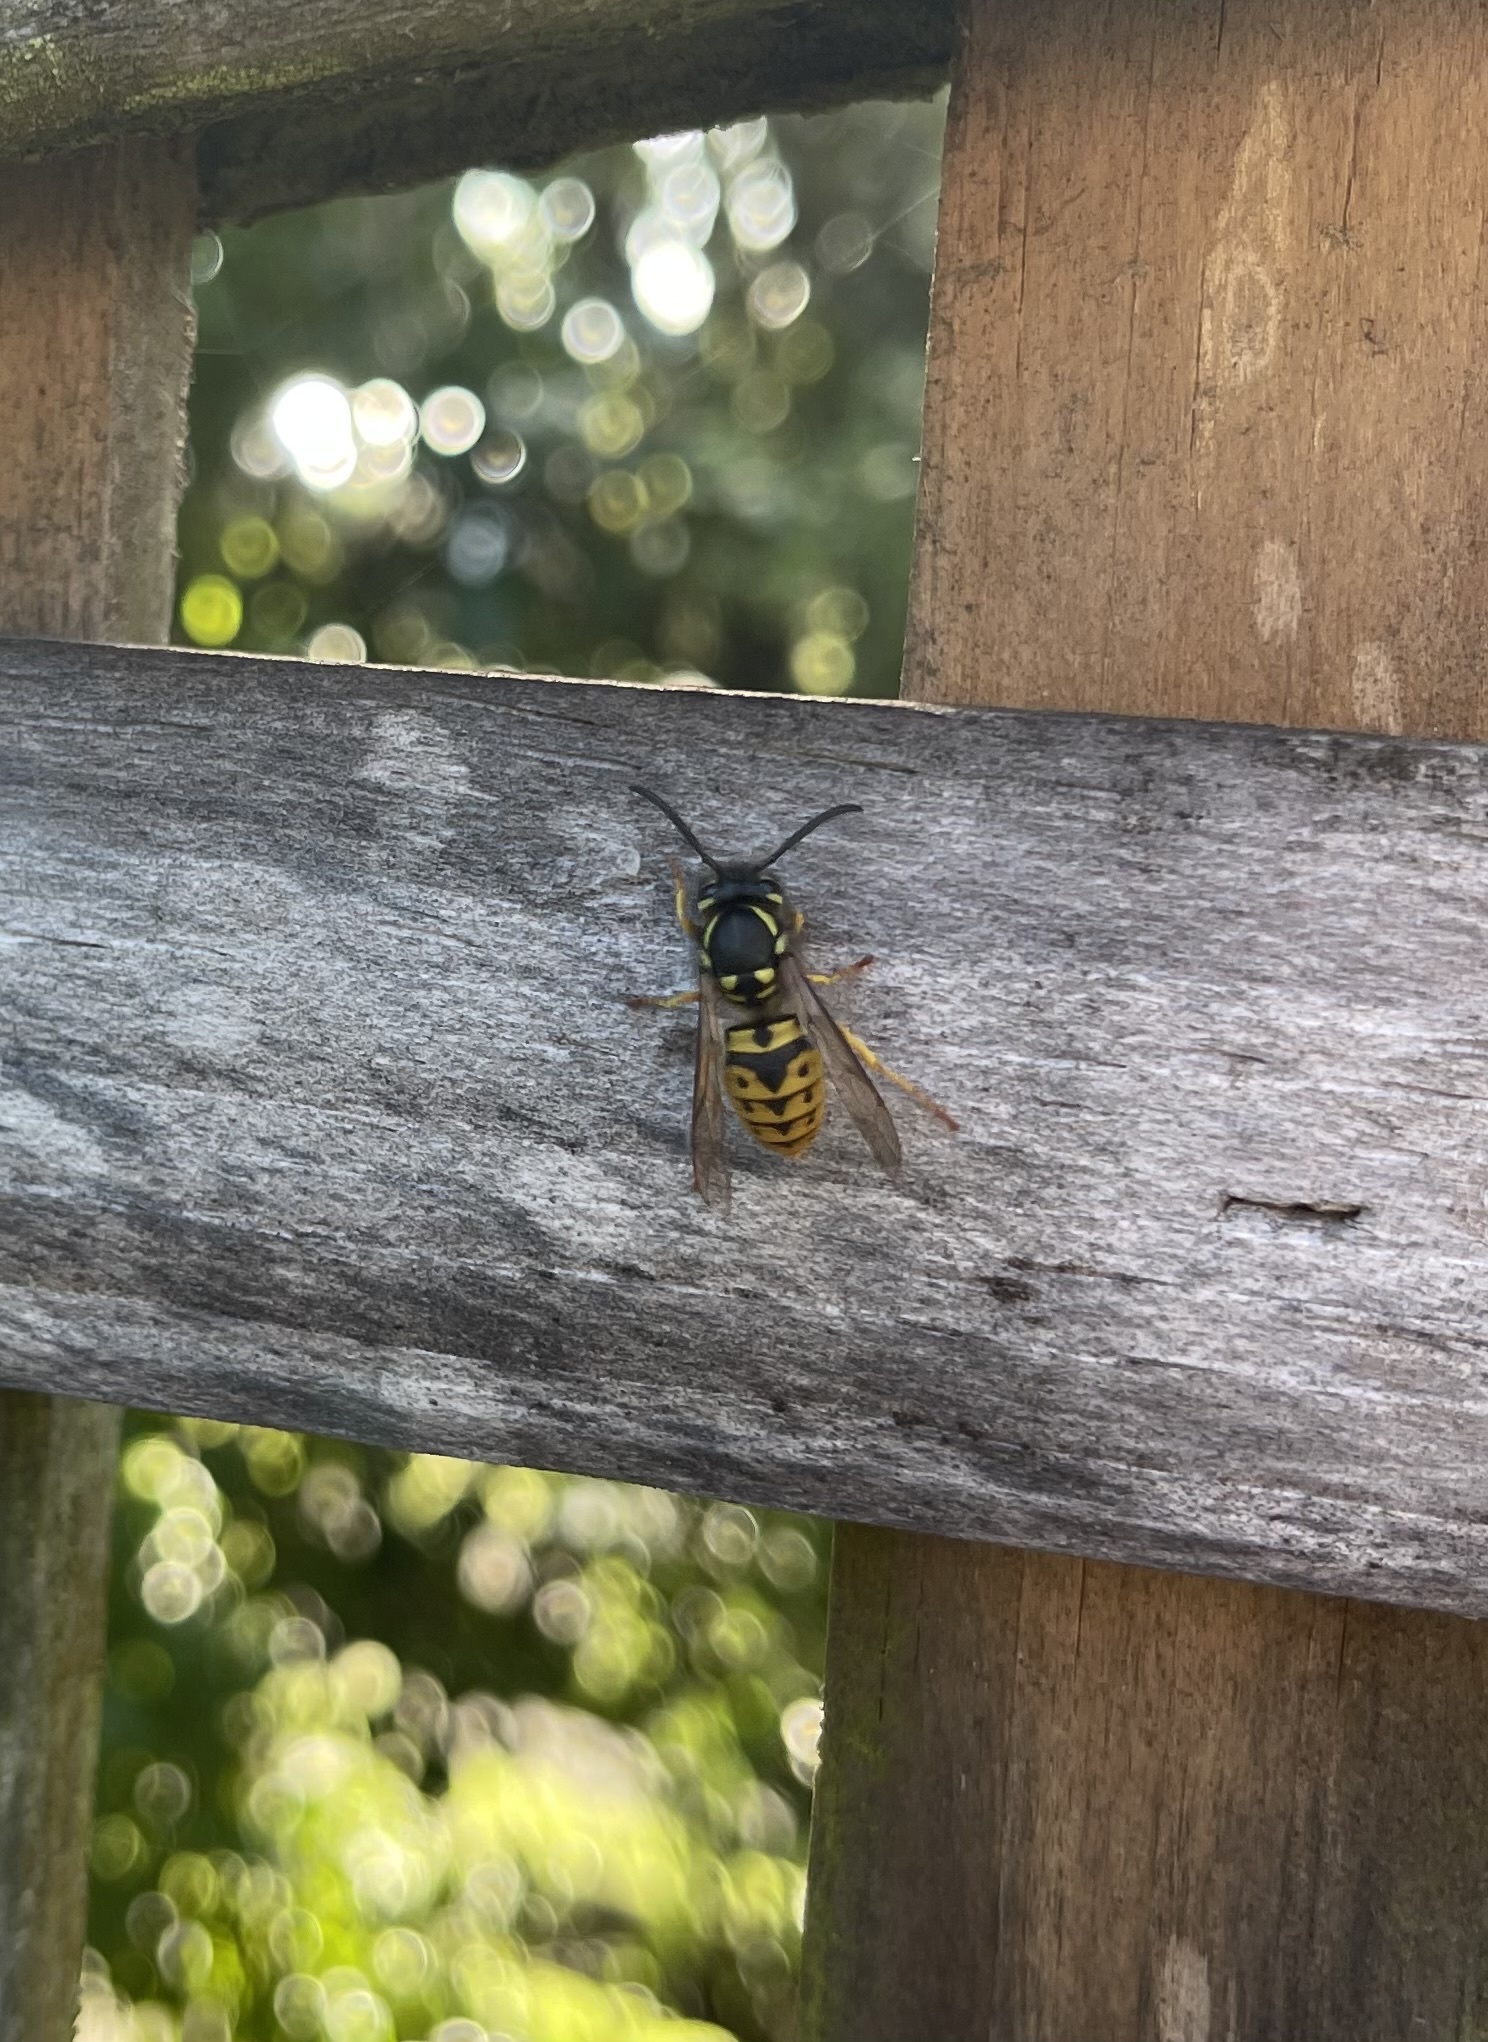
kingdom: Animalia
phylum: Arthropoda
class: Insecta
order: Hymenoptera
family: Vespidae
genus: Vespula
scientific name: Vespula germanica
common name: German wasp
